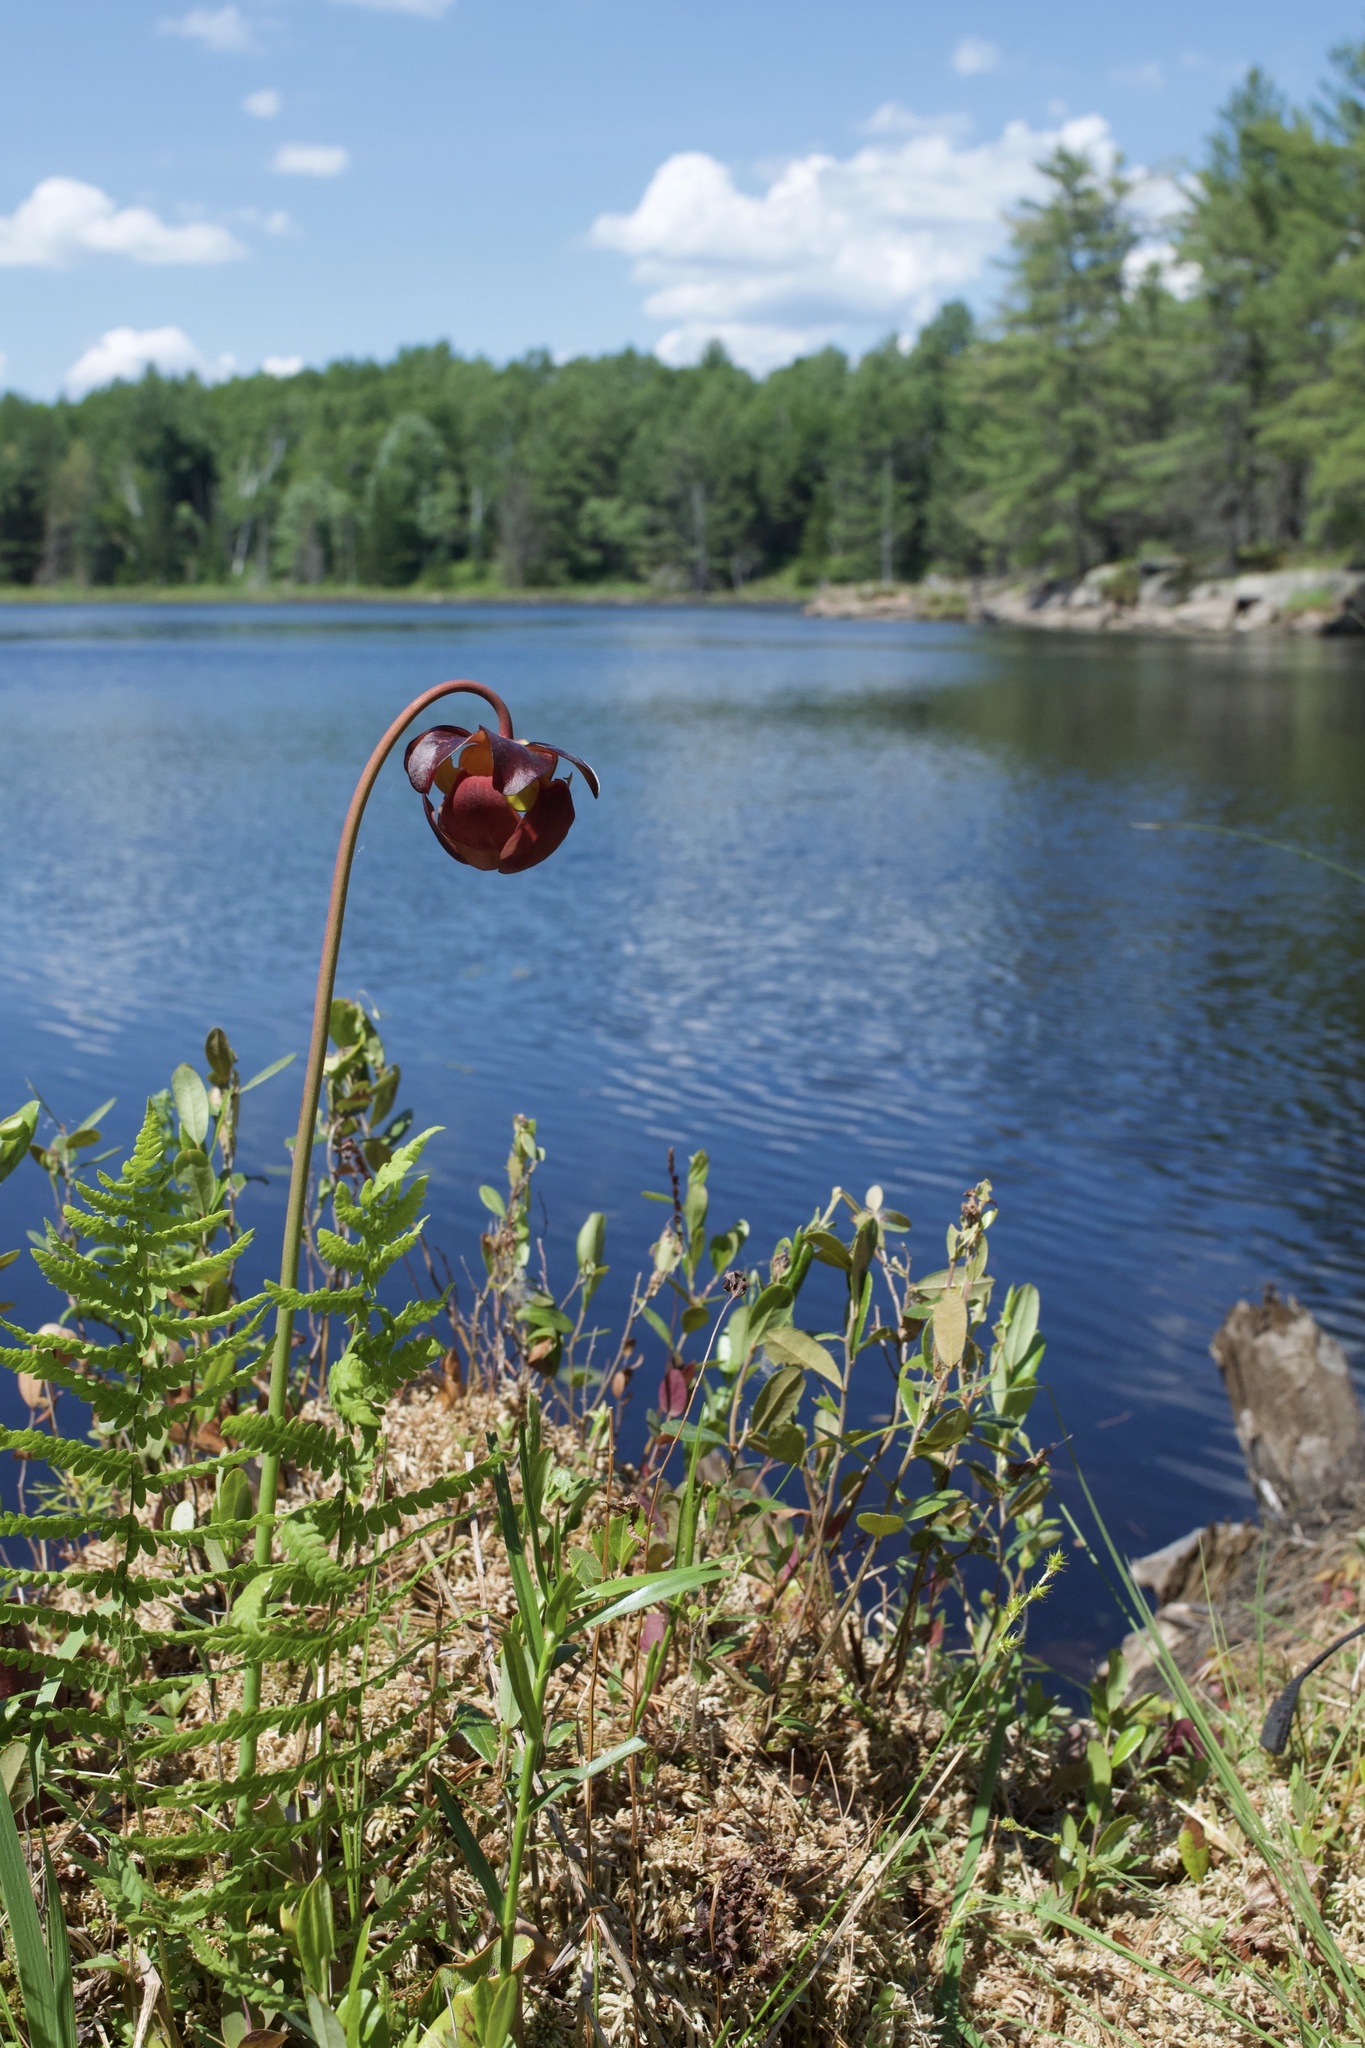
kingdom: Plantae
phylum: Tracheophyta
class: Magnoliopsida
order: Ericales
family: Sarraceniaceae
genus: Sarracenia
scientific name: Sarracenia purpurea
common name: Pitcherplant
